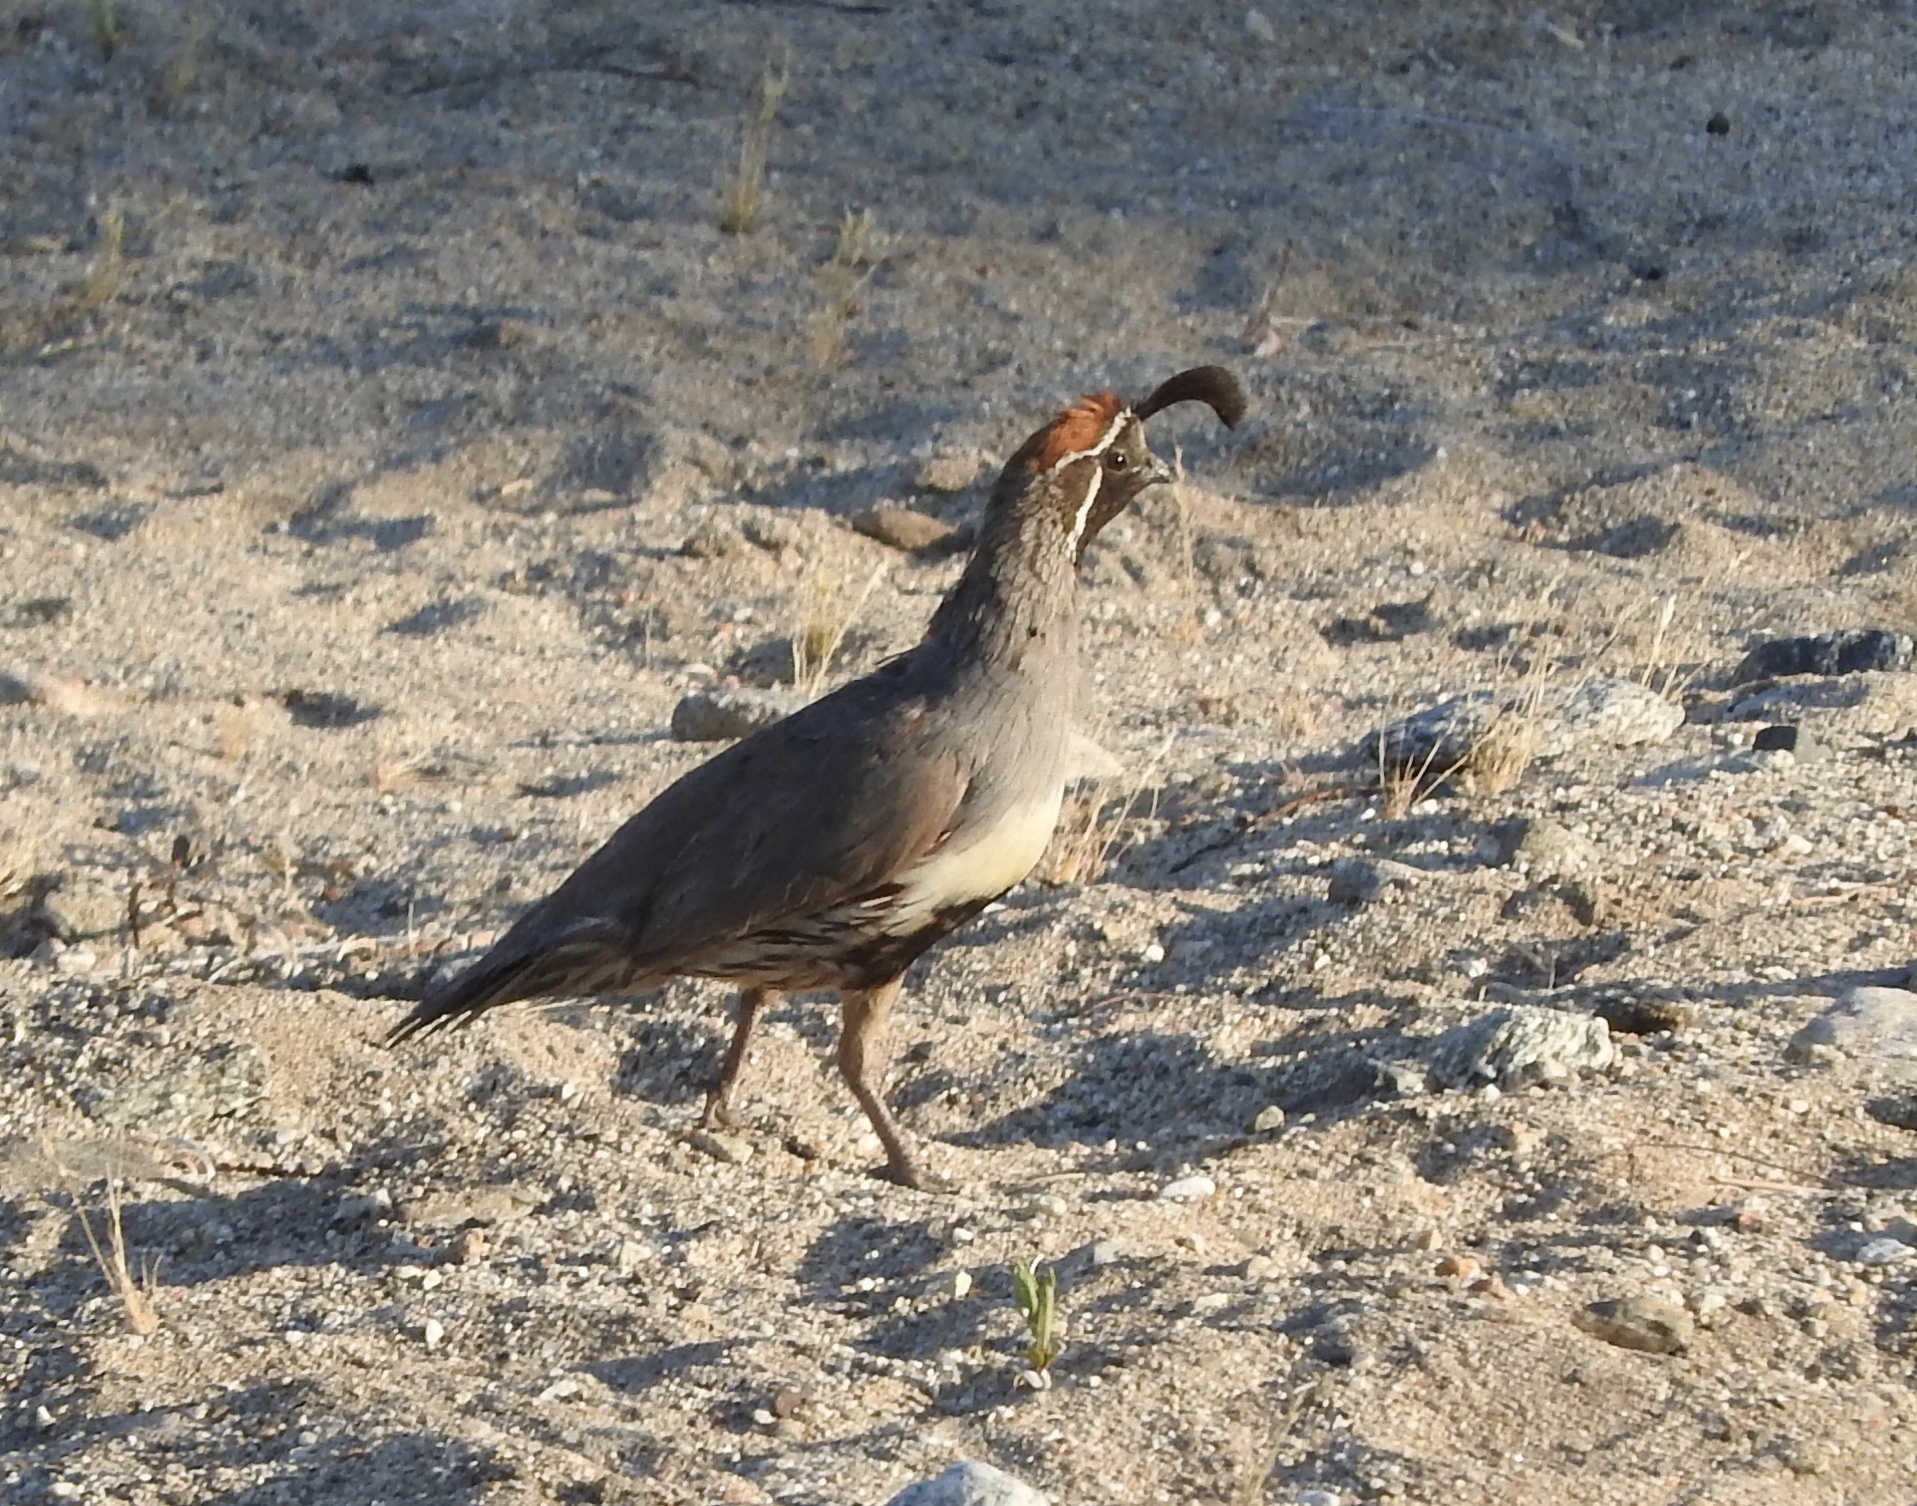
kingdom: Animalia
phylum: Chordata
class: Aves
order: Galliformes
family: Odontophoridae
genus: Callipepla
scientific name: Callipepla gambelii
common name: Gambel's quail
